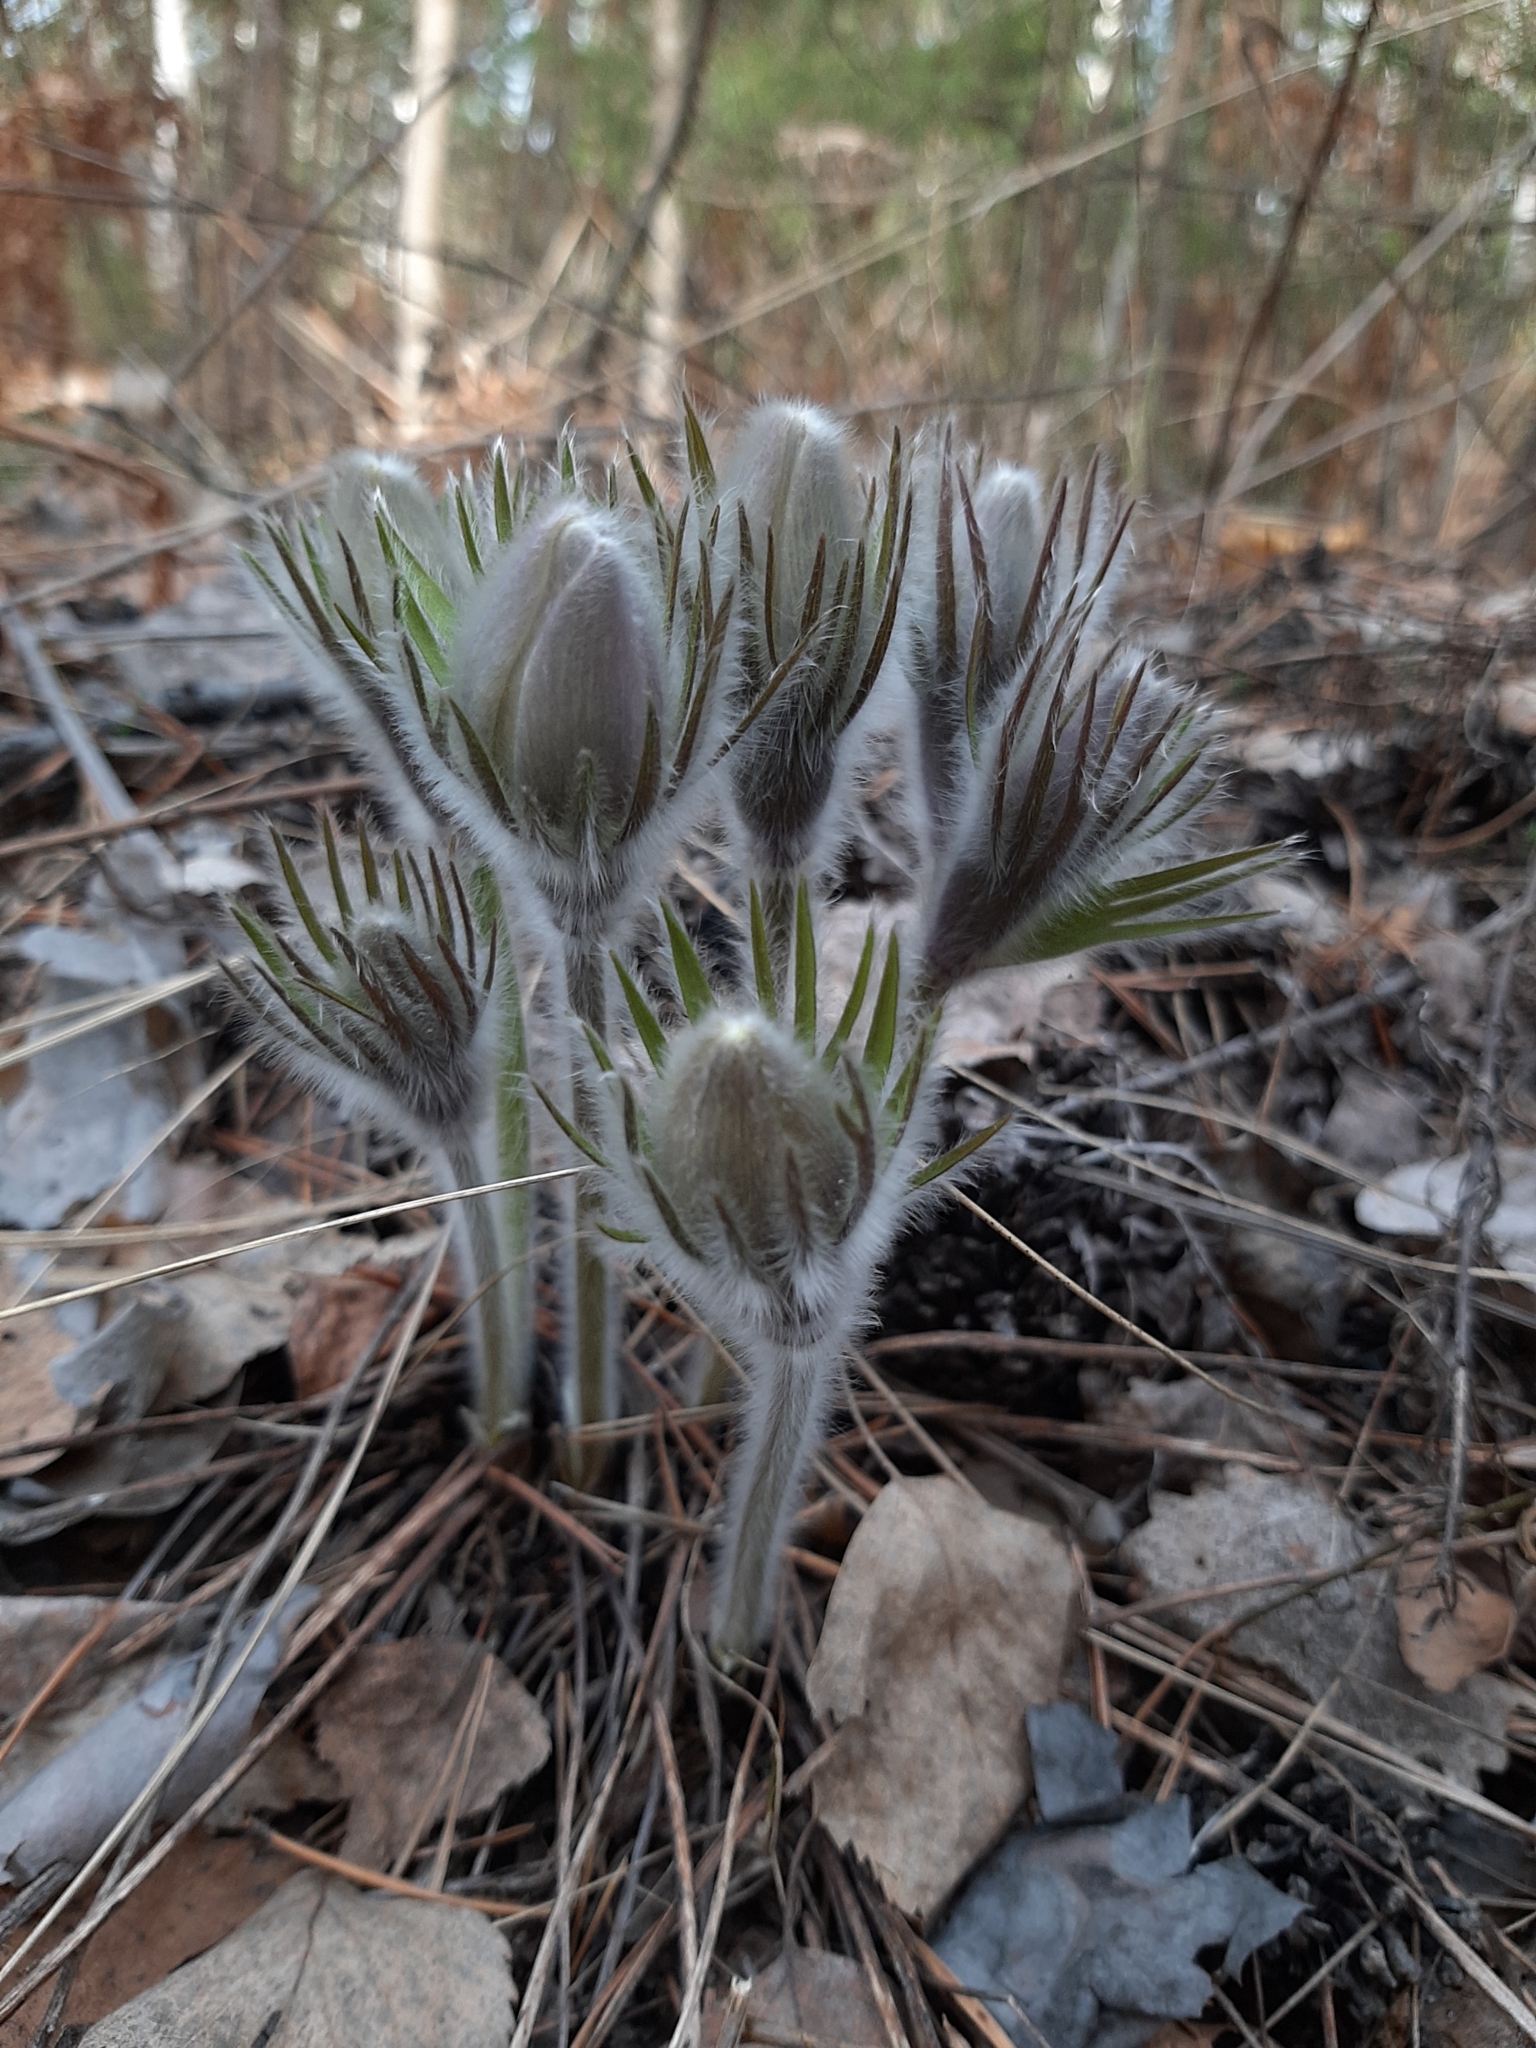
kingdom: Plantae
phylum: Tracheophyta
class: Magnoliopsida
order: Ranunculales
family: Ranunculaceae
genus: Pulsatilla
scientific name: Pulsatilla patens
